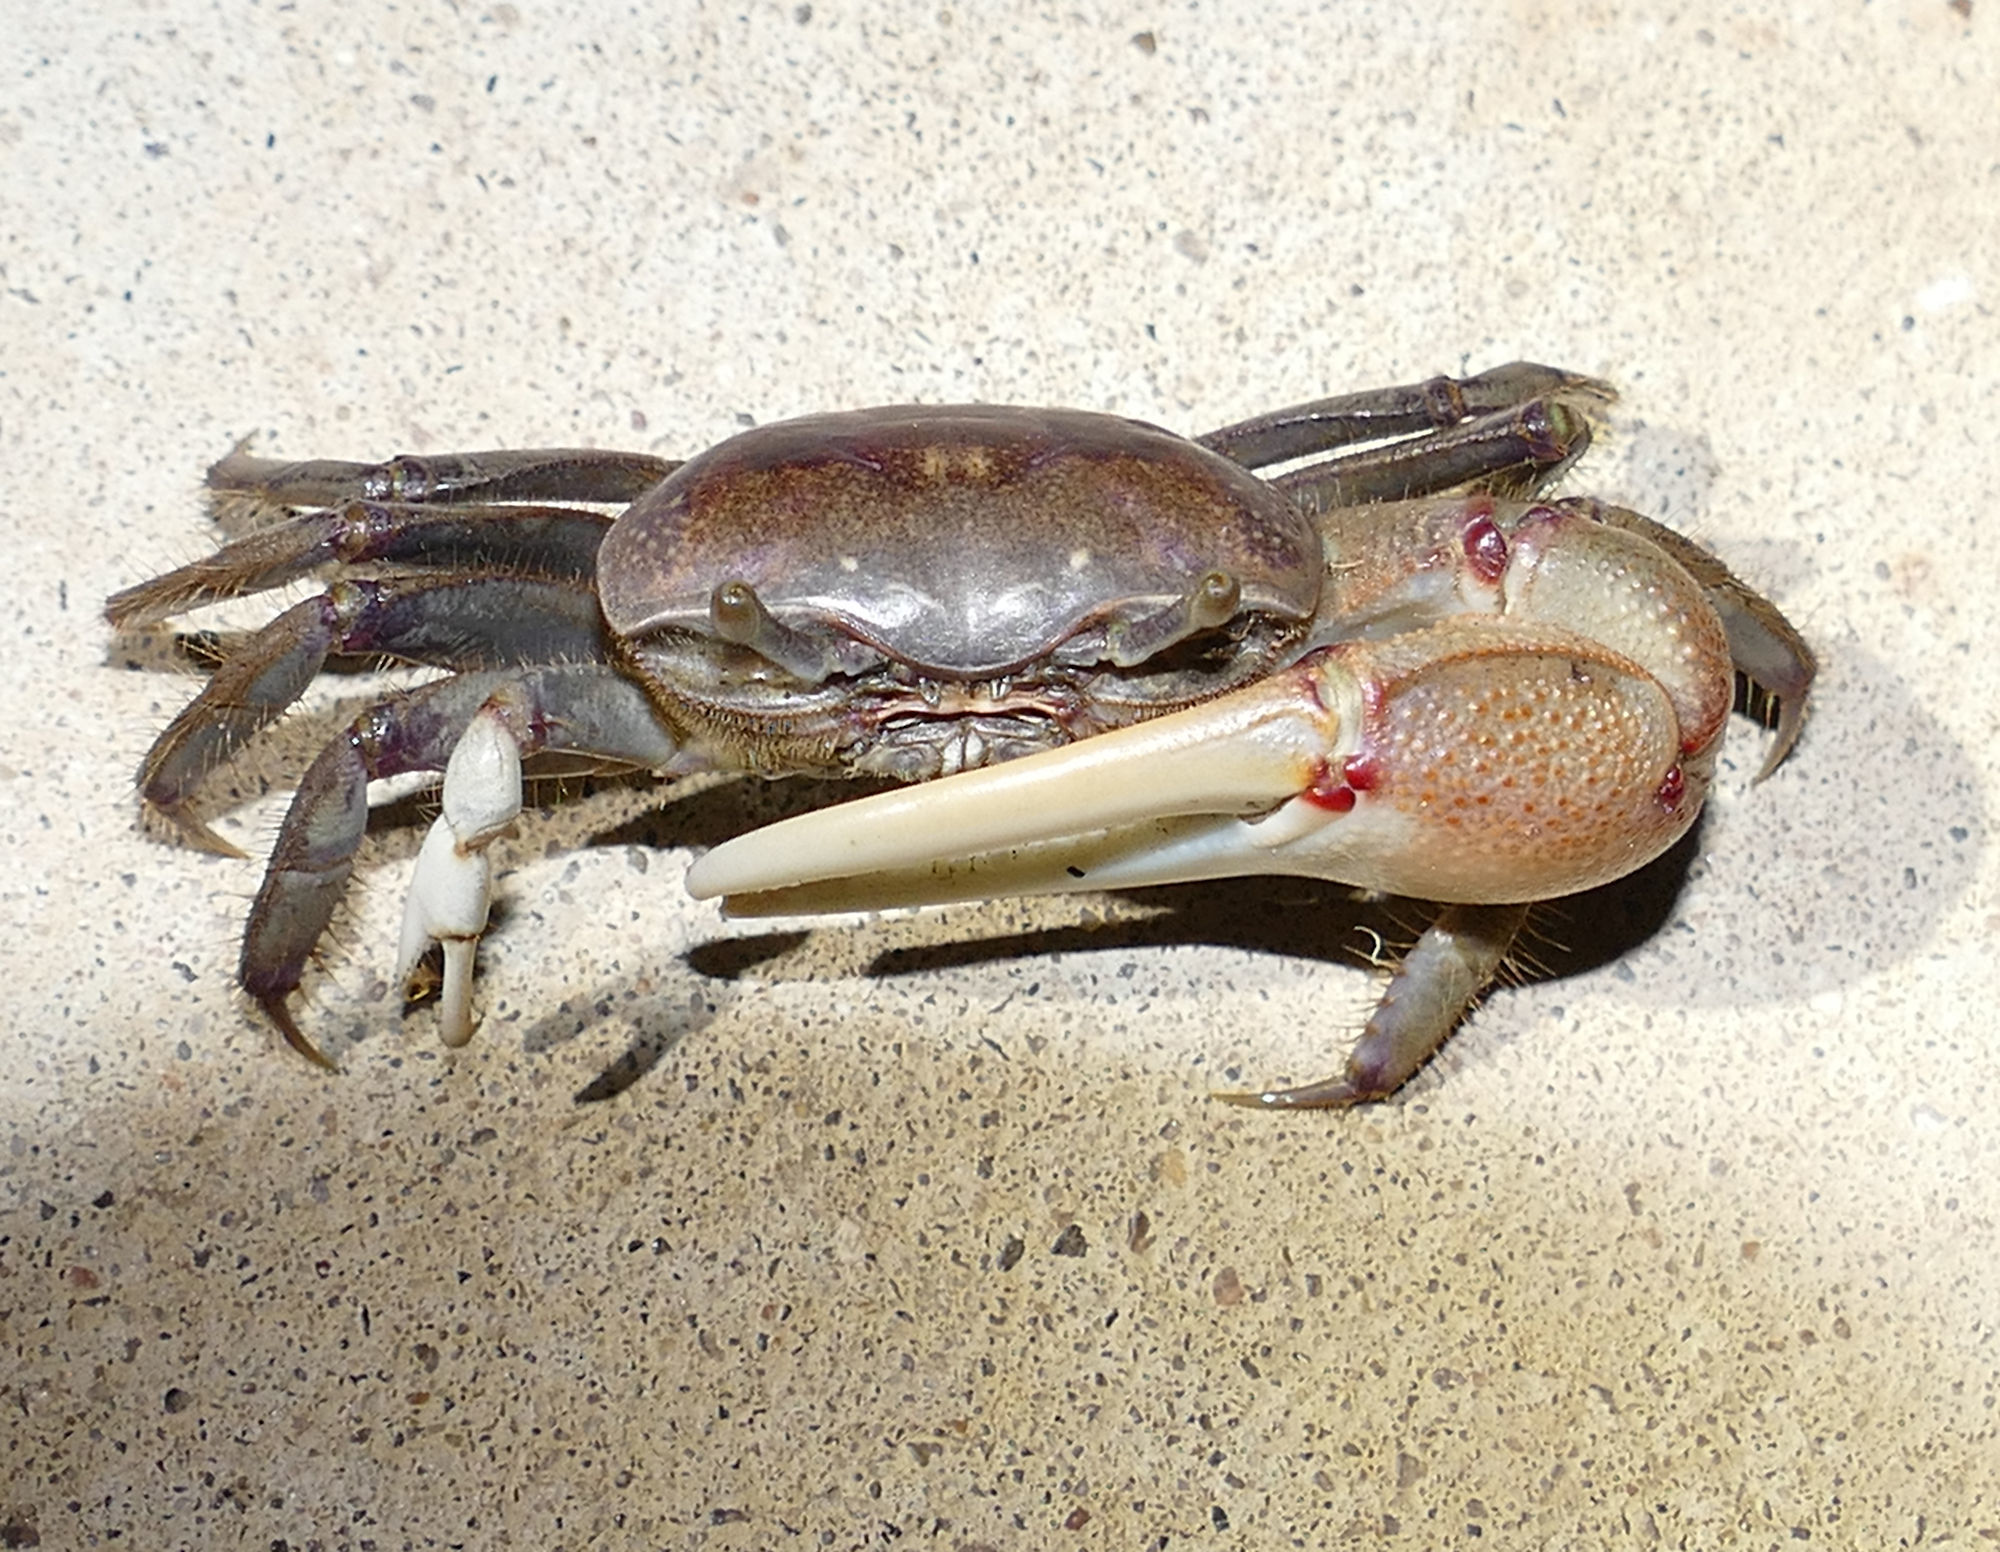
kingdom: Animalia
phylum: Arthropoda
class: Malacostraca
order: Decapoda
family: Ocypodidae
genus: Minuca
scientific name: Minuca minax
